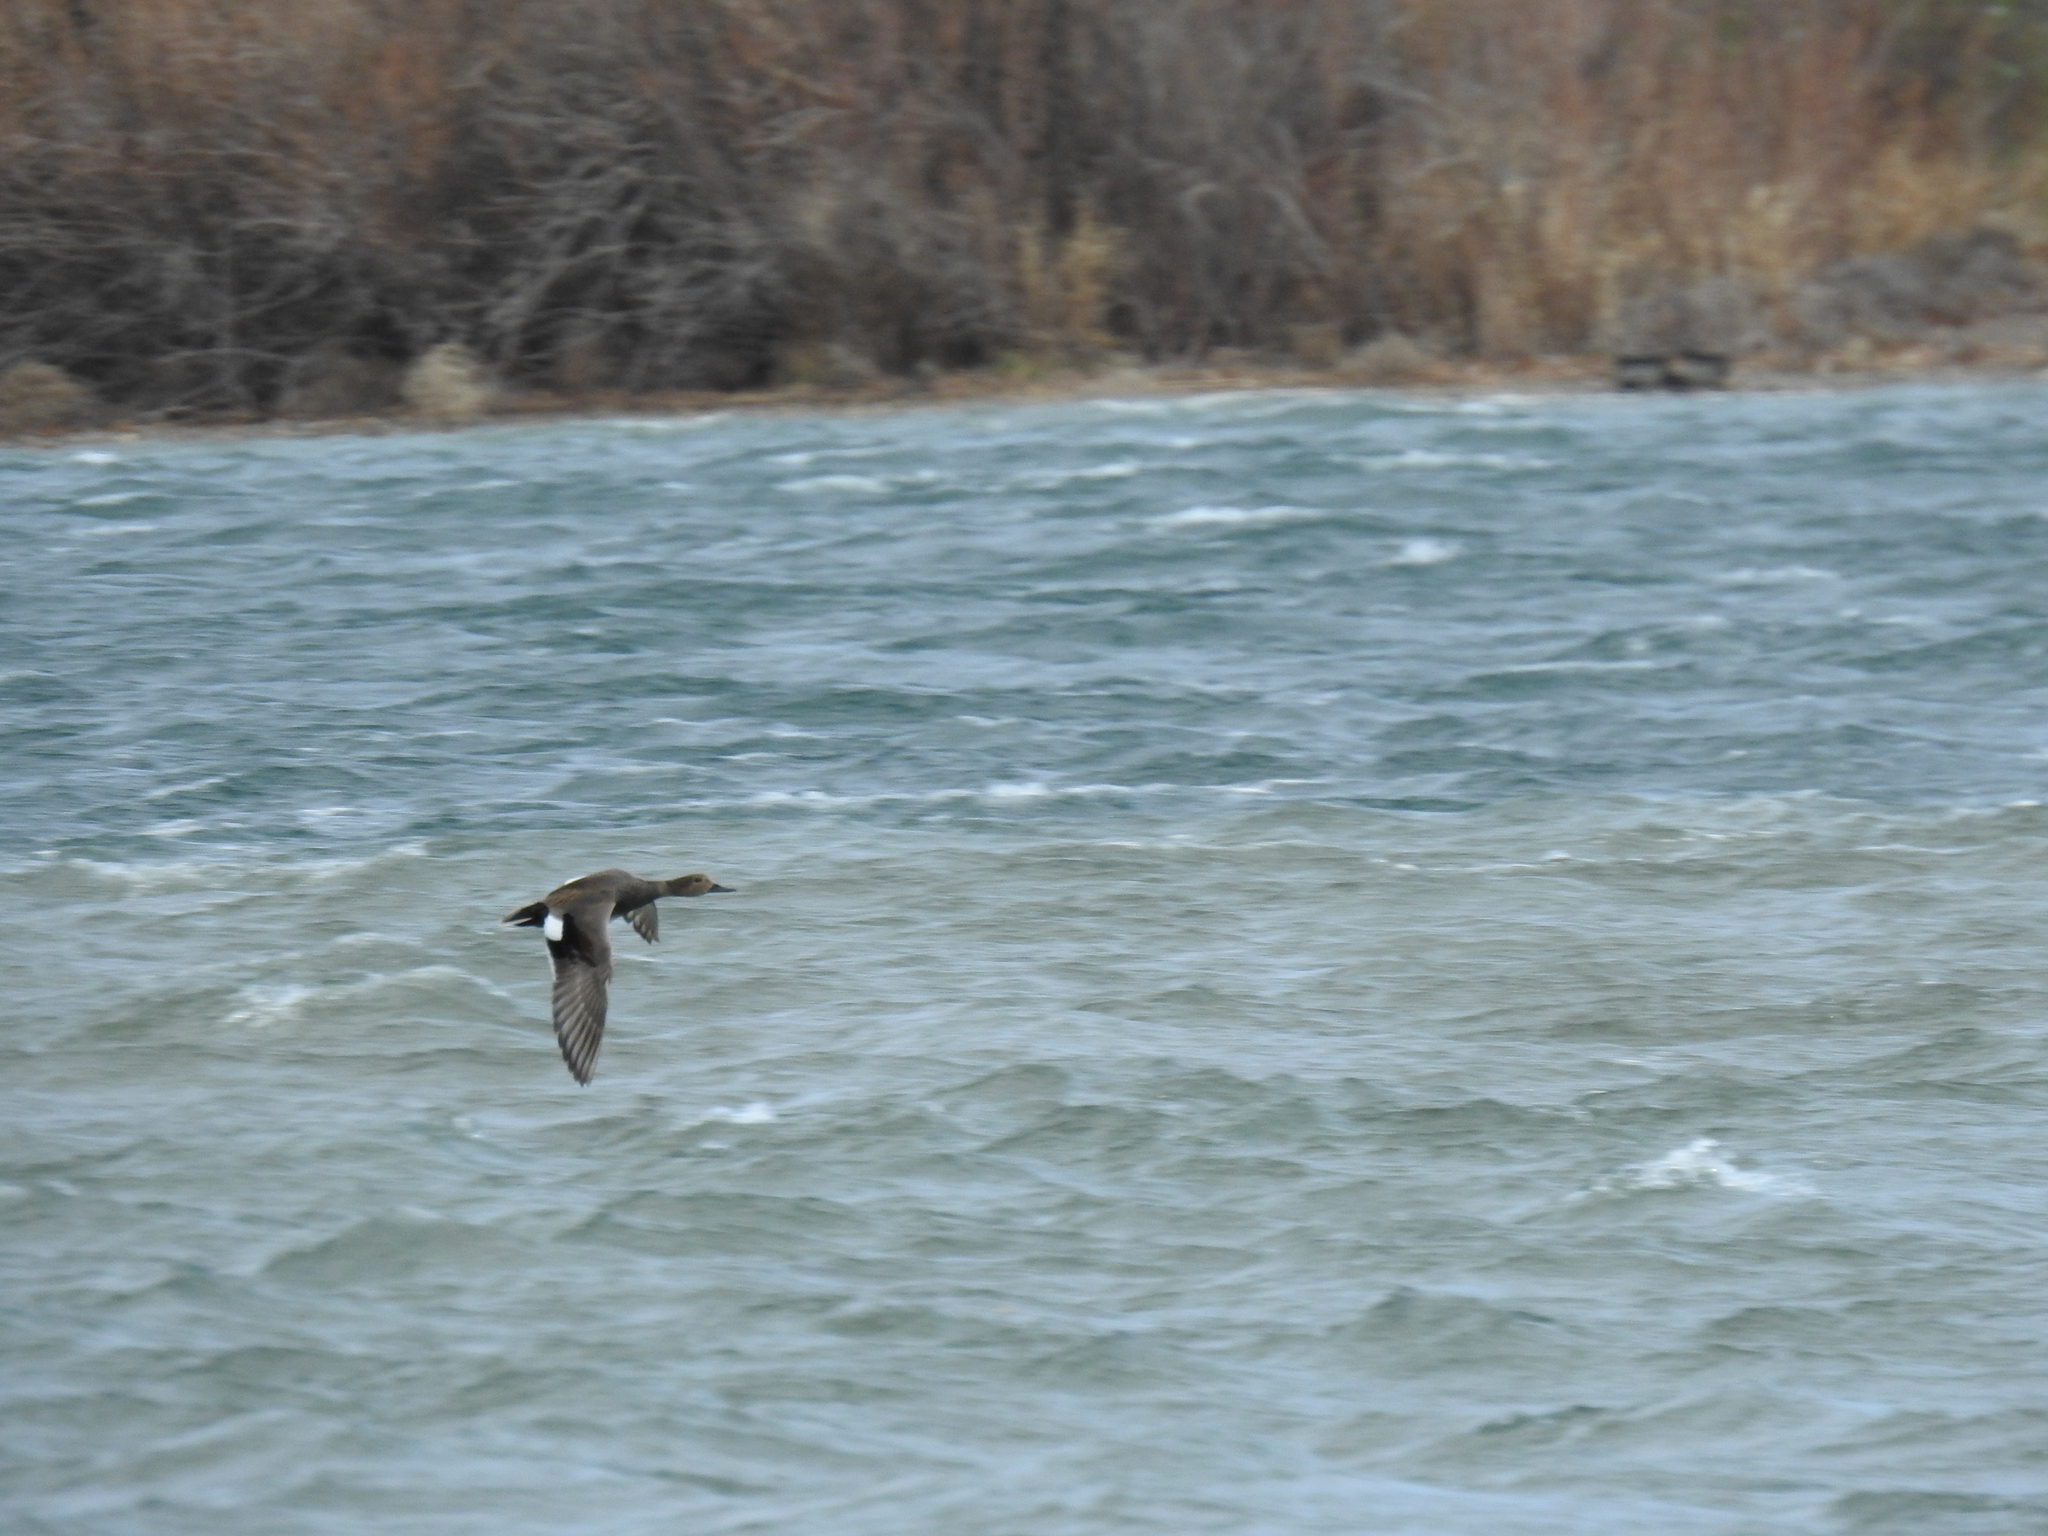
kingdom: Animalia
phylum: Chordata
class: Aves
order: Anseriformes
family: Anatidae
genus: Mareca
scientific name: Mareca strepera
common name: Gadwall
